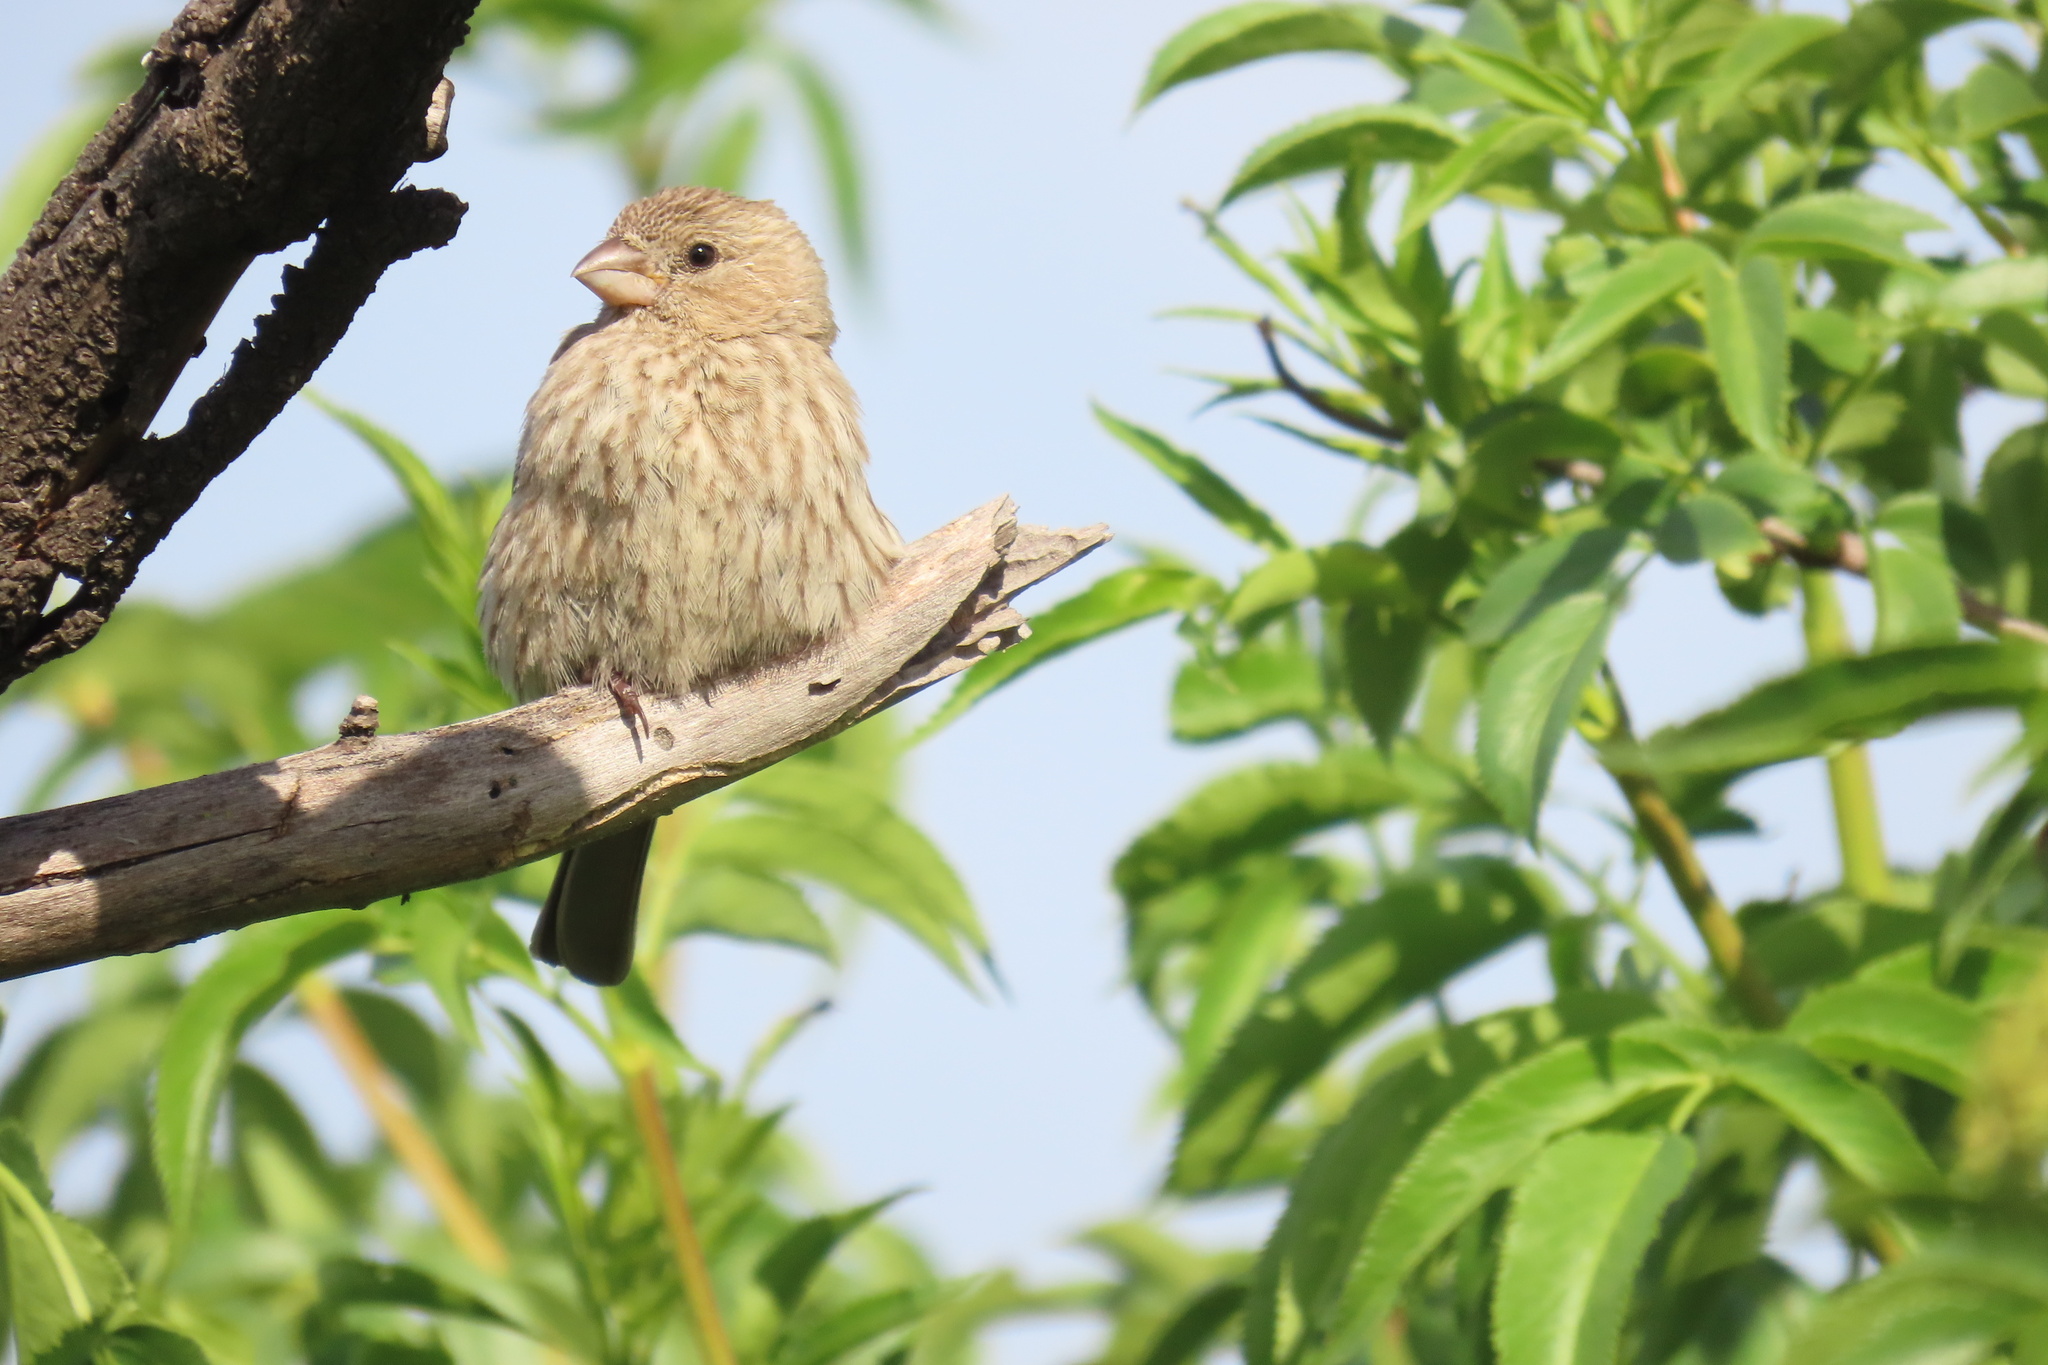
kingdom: Animalia
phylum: Chordata
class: Aves
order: Passeriformes
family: Fringillidae
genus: Haemorhous
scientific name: Haemorhous mexicanus
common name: House finch
